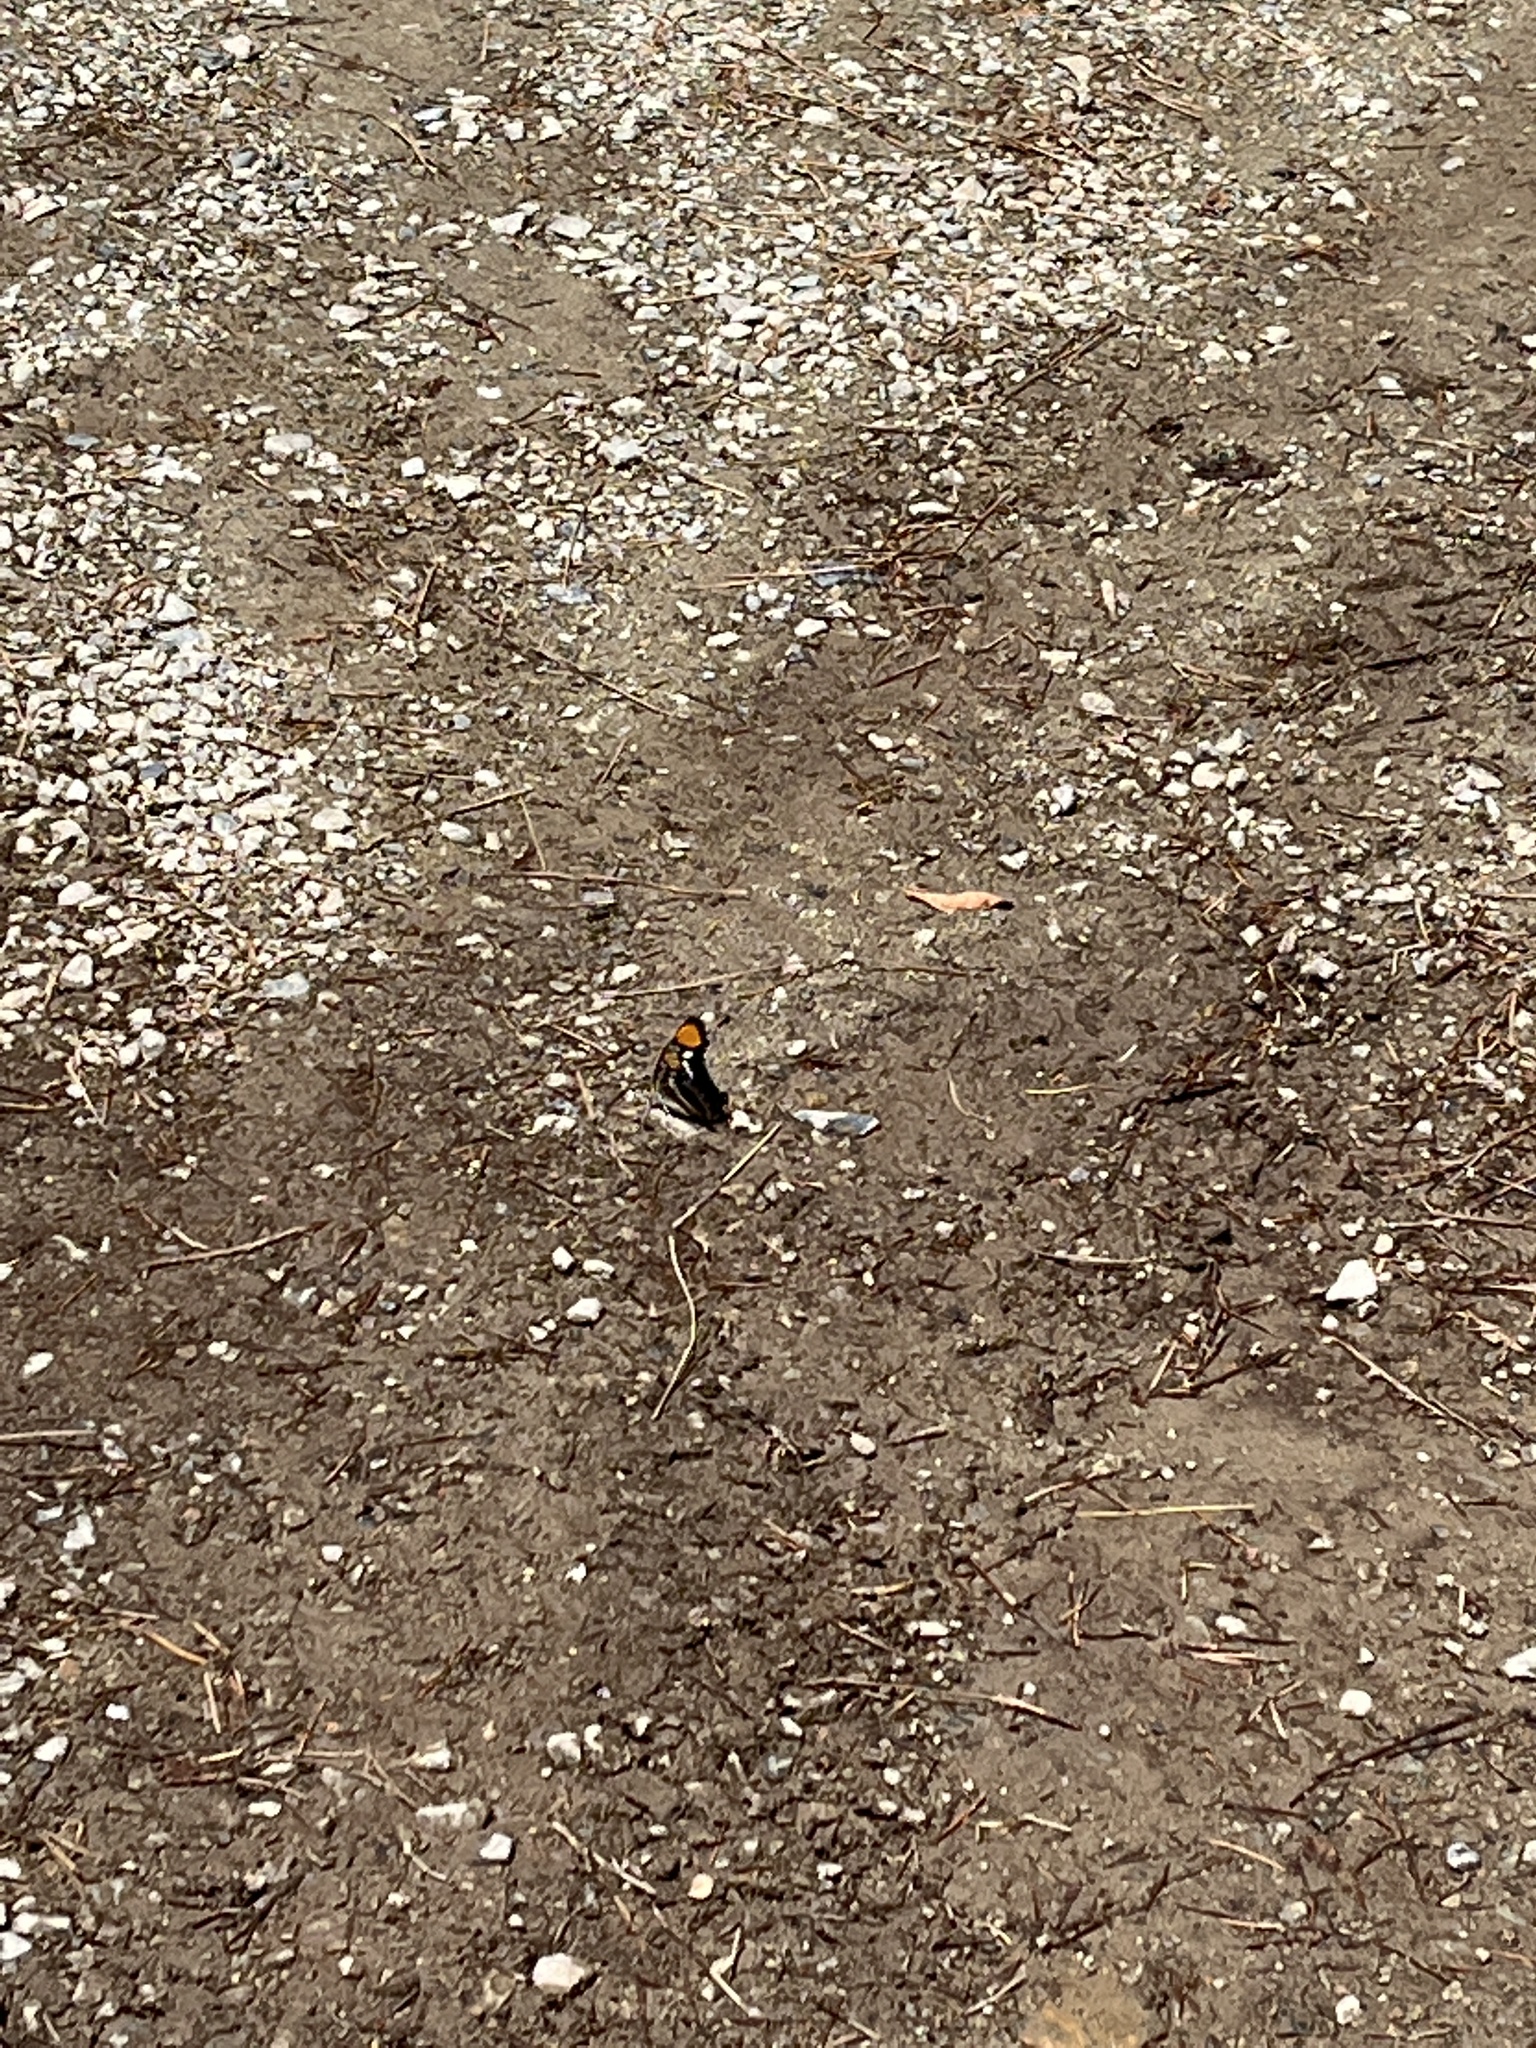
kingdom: Animalia
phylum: Arthropoda
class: Insecta
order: Lepidoptera
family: Nymphalidae
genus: Limenitis
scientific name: Limenitis bredowii
